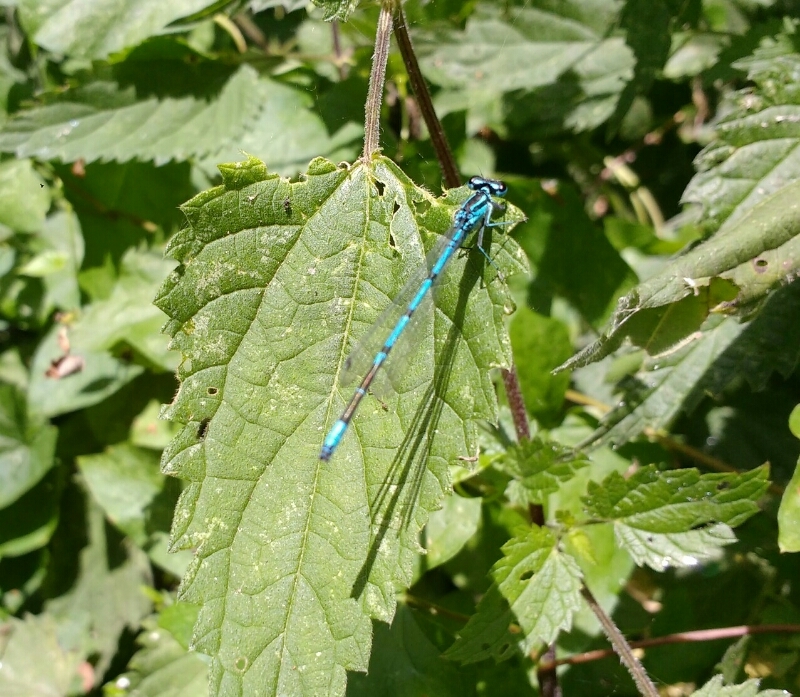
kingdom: Animalia
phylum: Arthropoda
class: Insecta
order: Odonata
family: Coenagrionidae
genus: Coenagrion
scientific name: Coenagrion puella
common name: Azure damselfly
